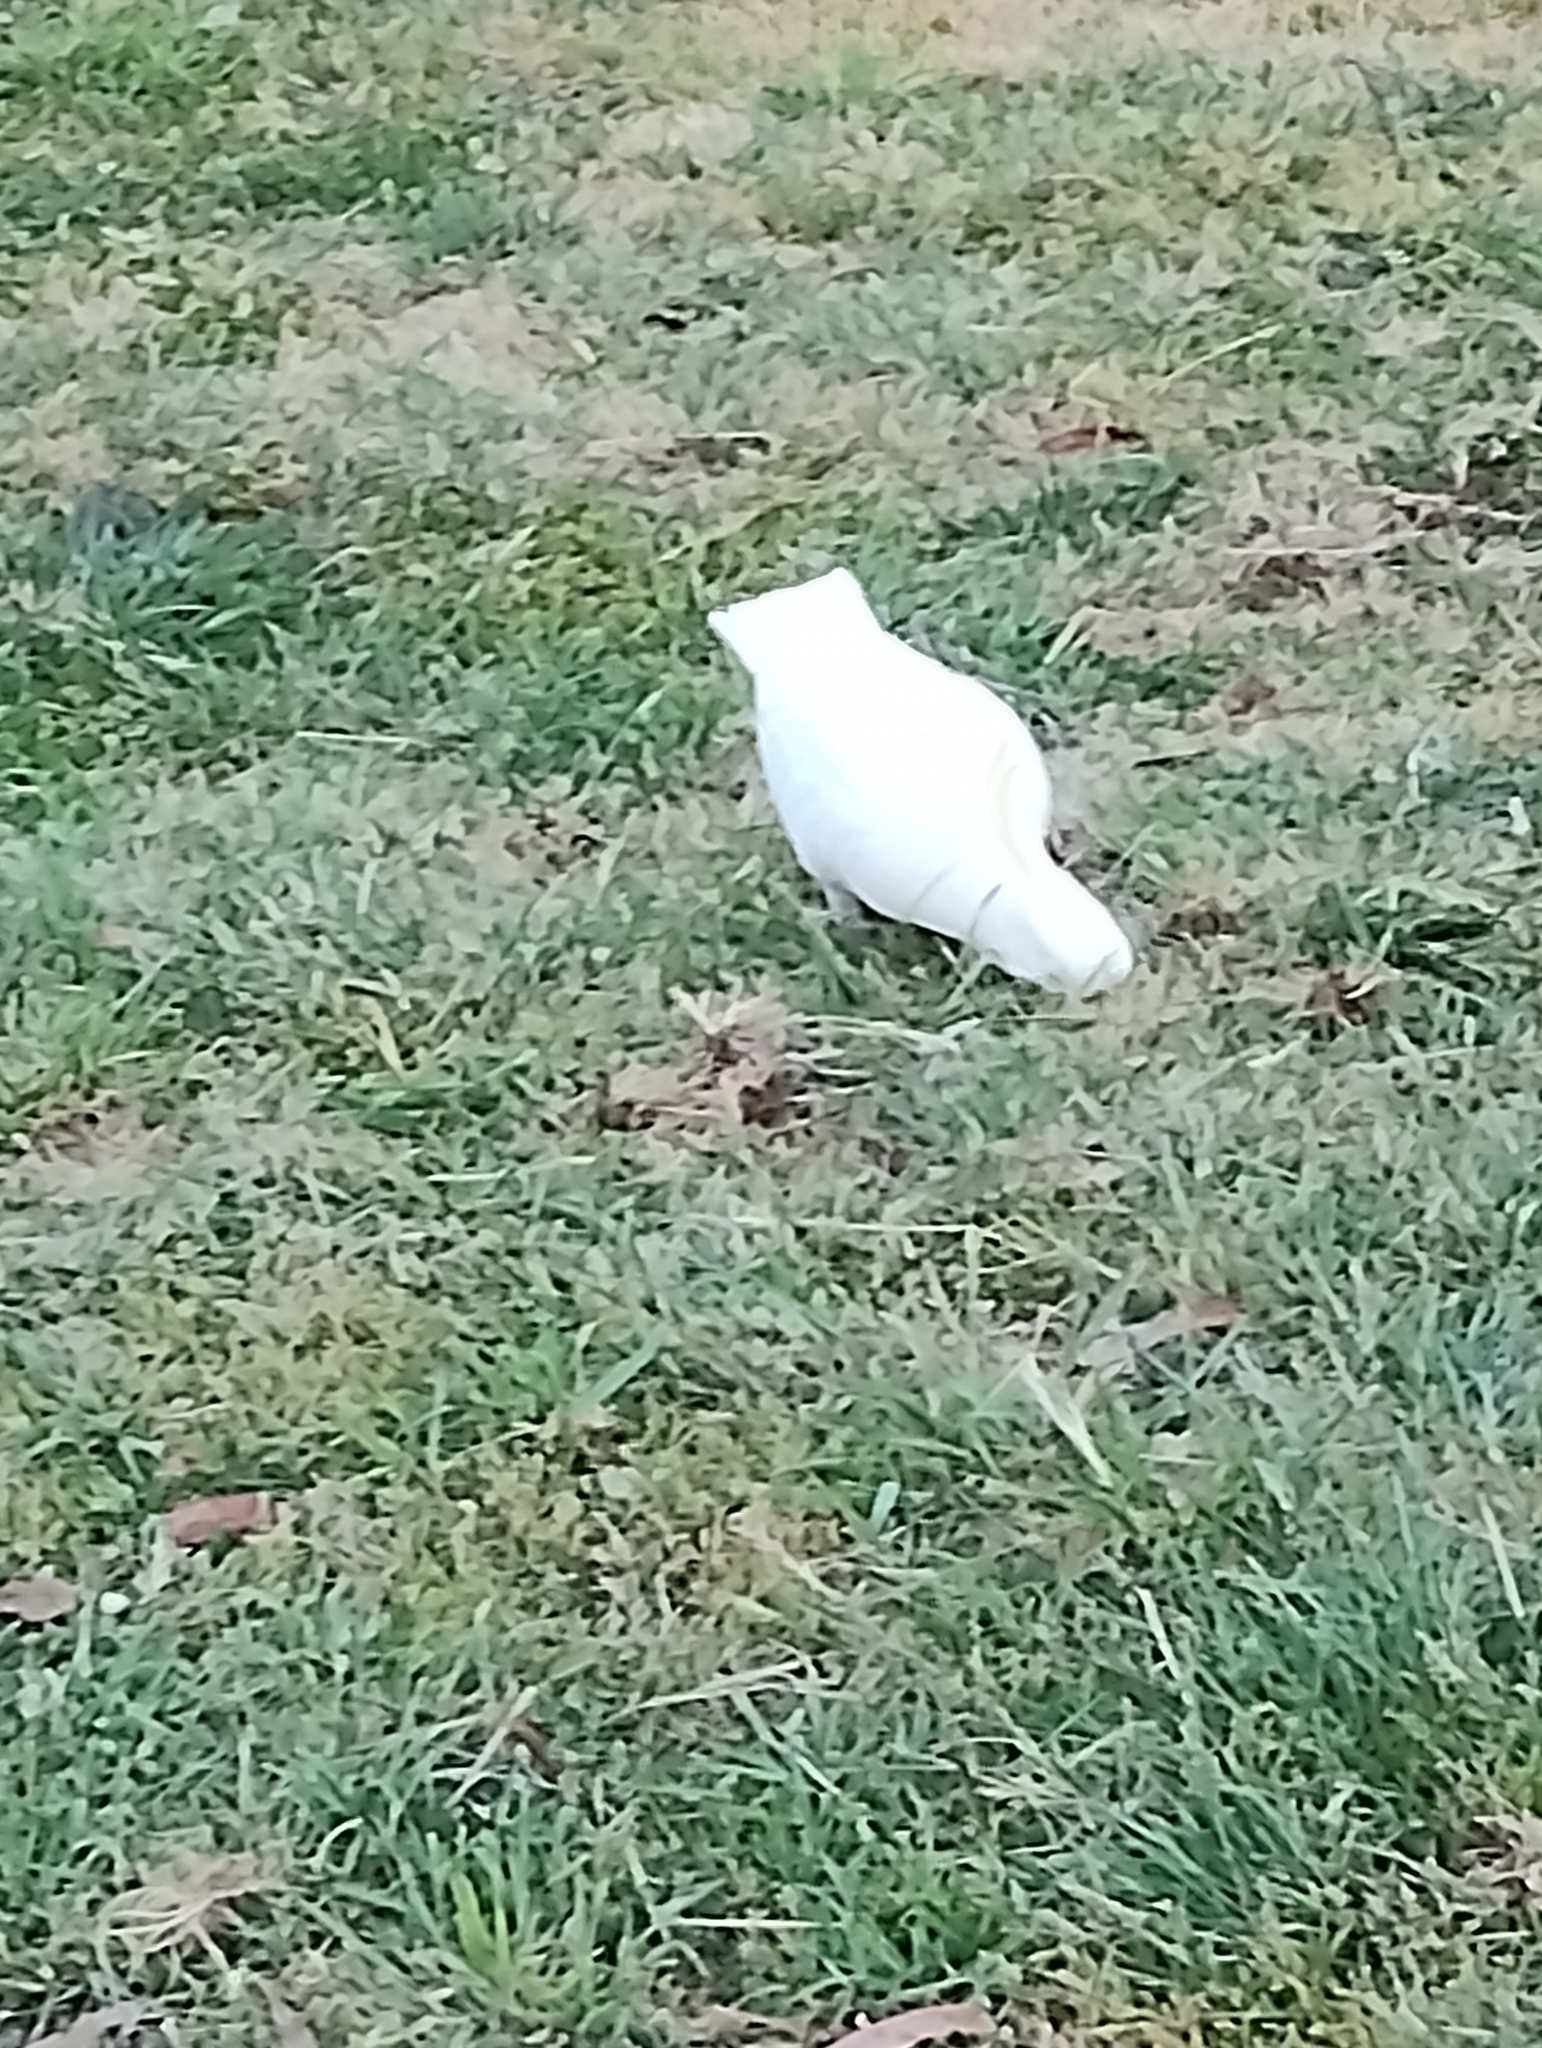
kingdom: Animalia
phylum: Chordata
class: Aves
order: Psittaciformes
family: Psittacidae
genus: Cacatua
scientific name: Cacatua galerita
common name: Sulphur-crested cockatoo
